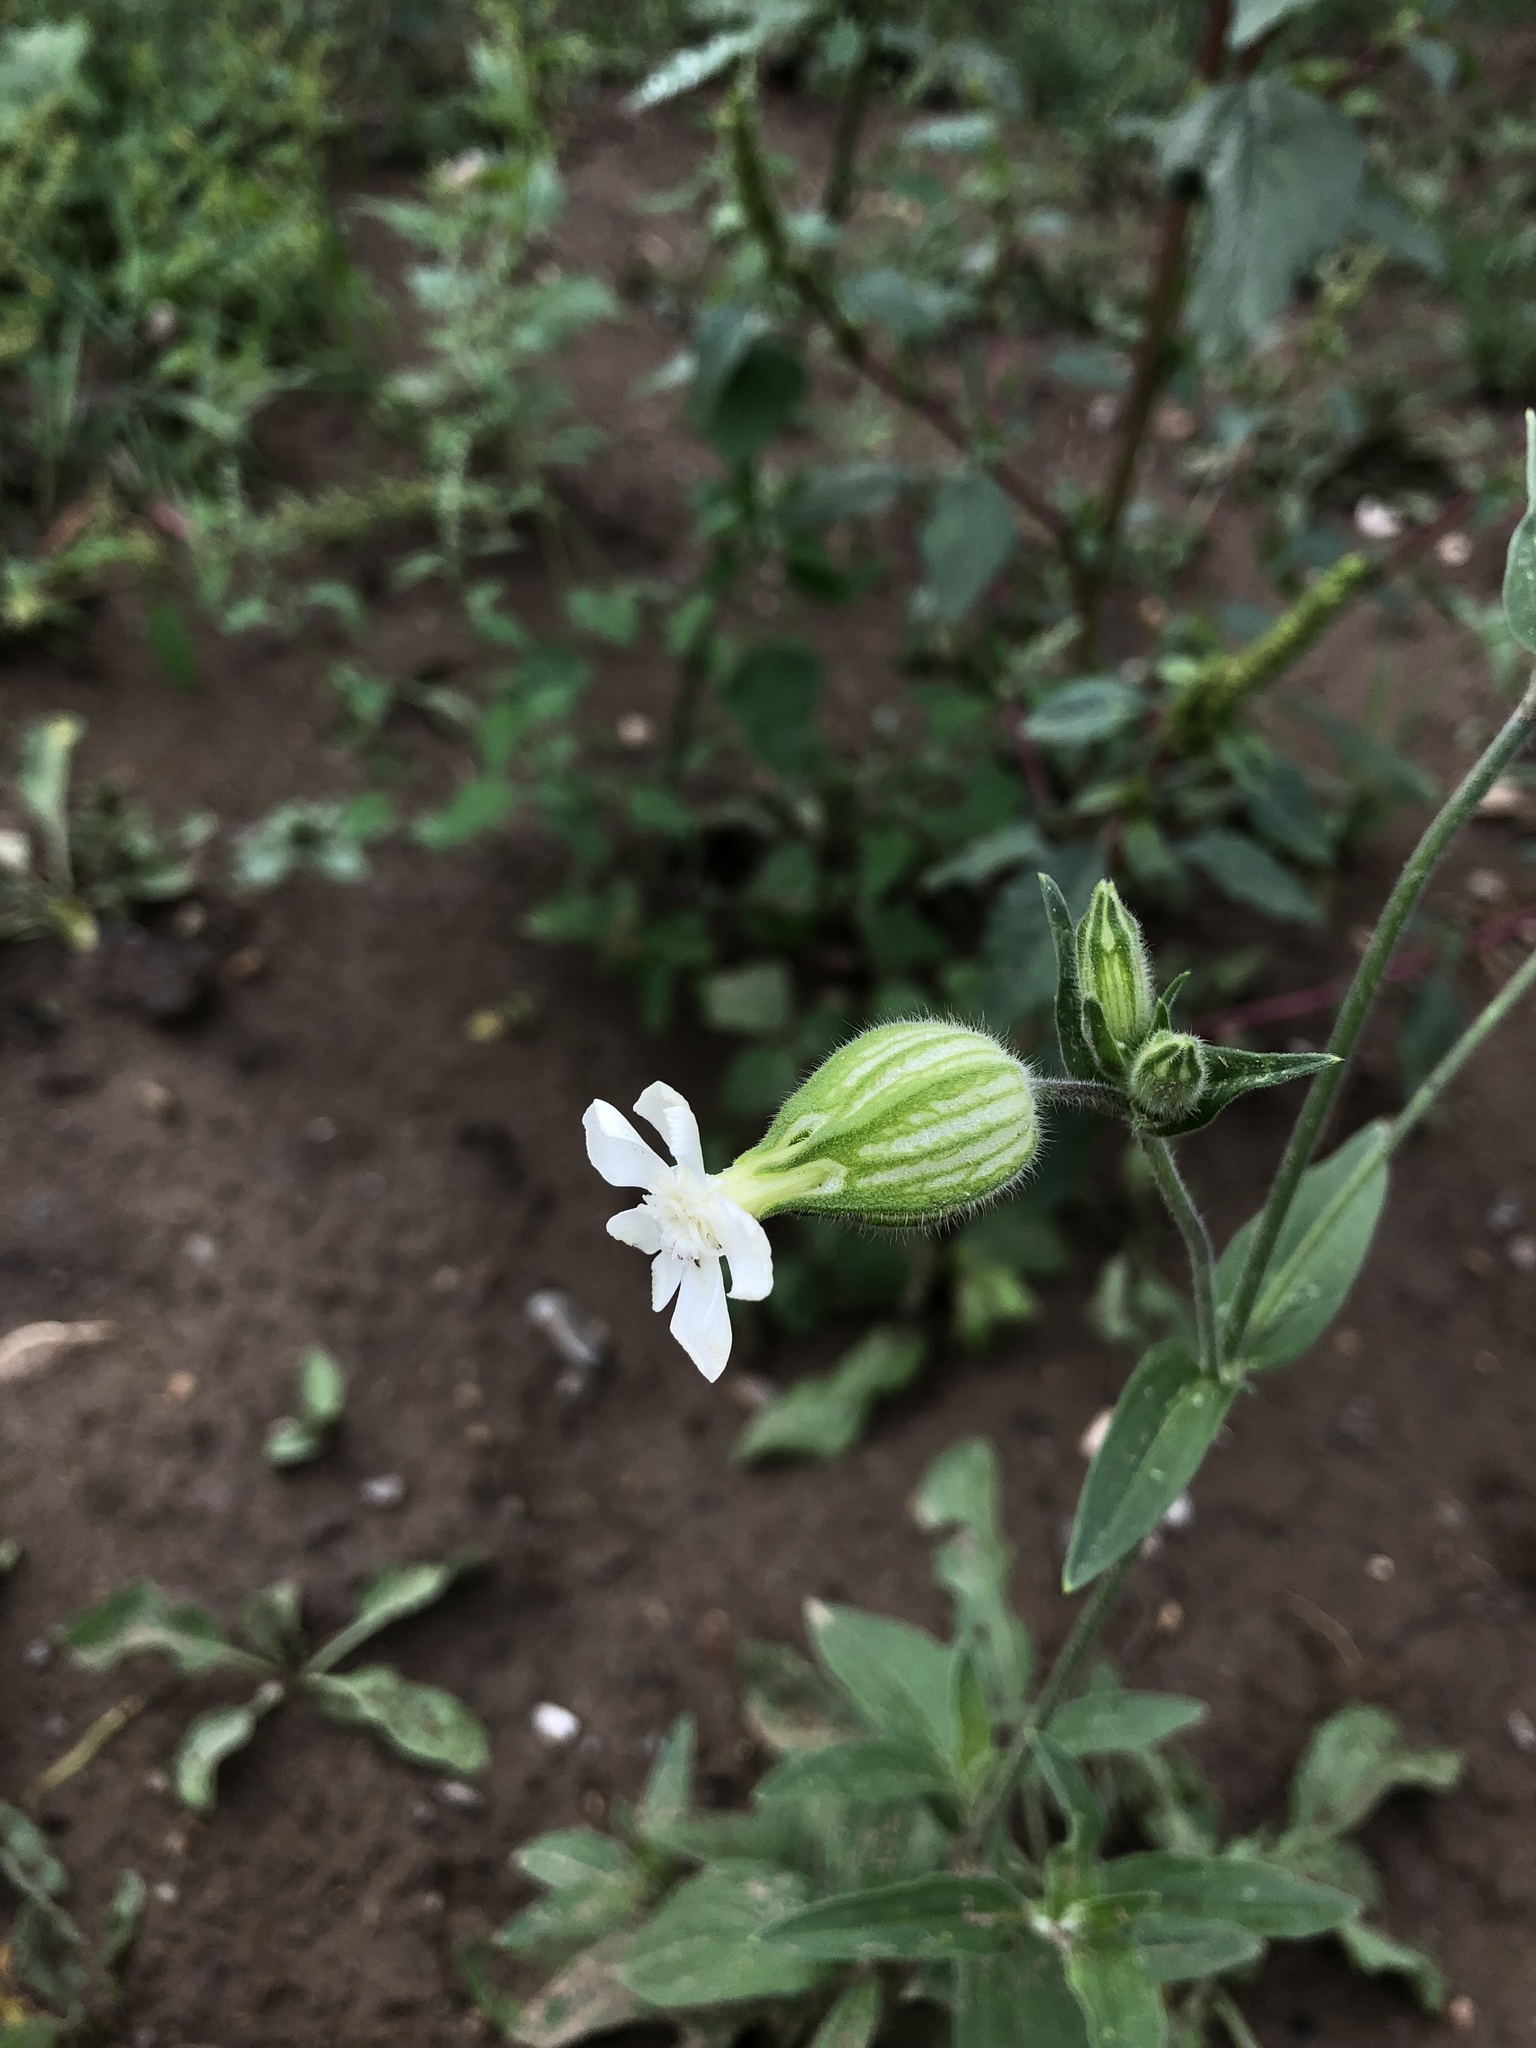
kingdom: Plantae
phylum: Tracheophyta
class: Magnoliopsida
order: Caryophyllales
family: Caryophyllaceae
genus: Silene
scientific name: Silene latifolia
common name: White campion
